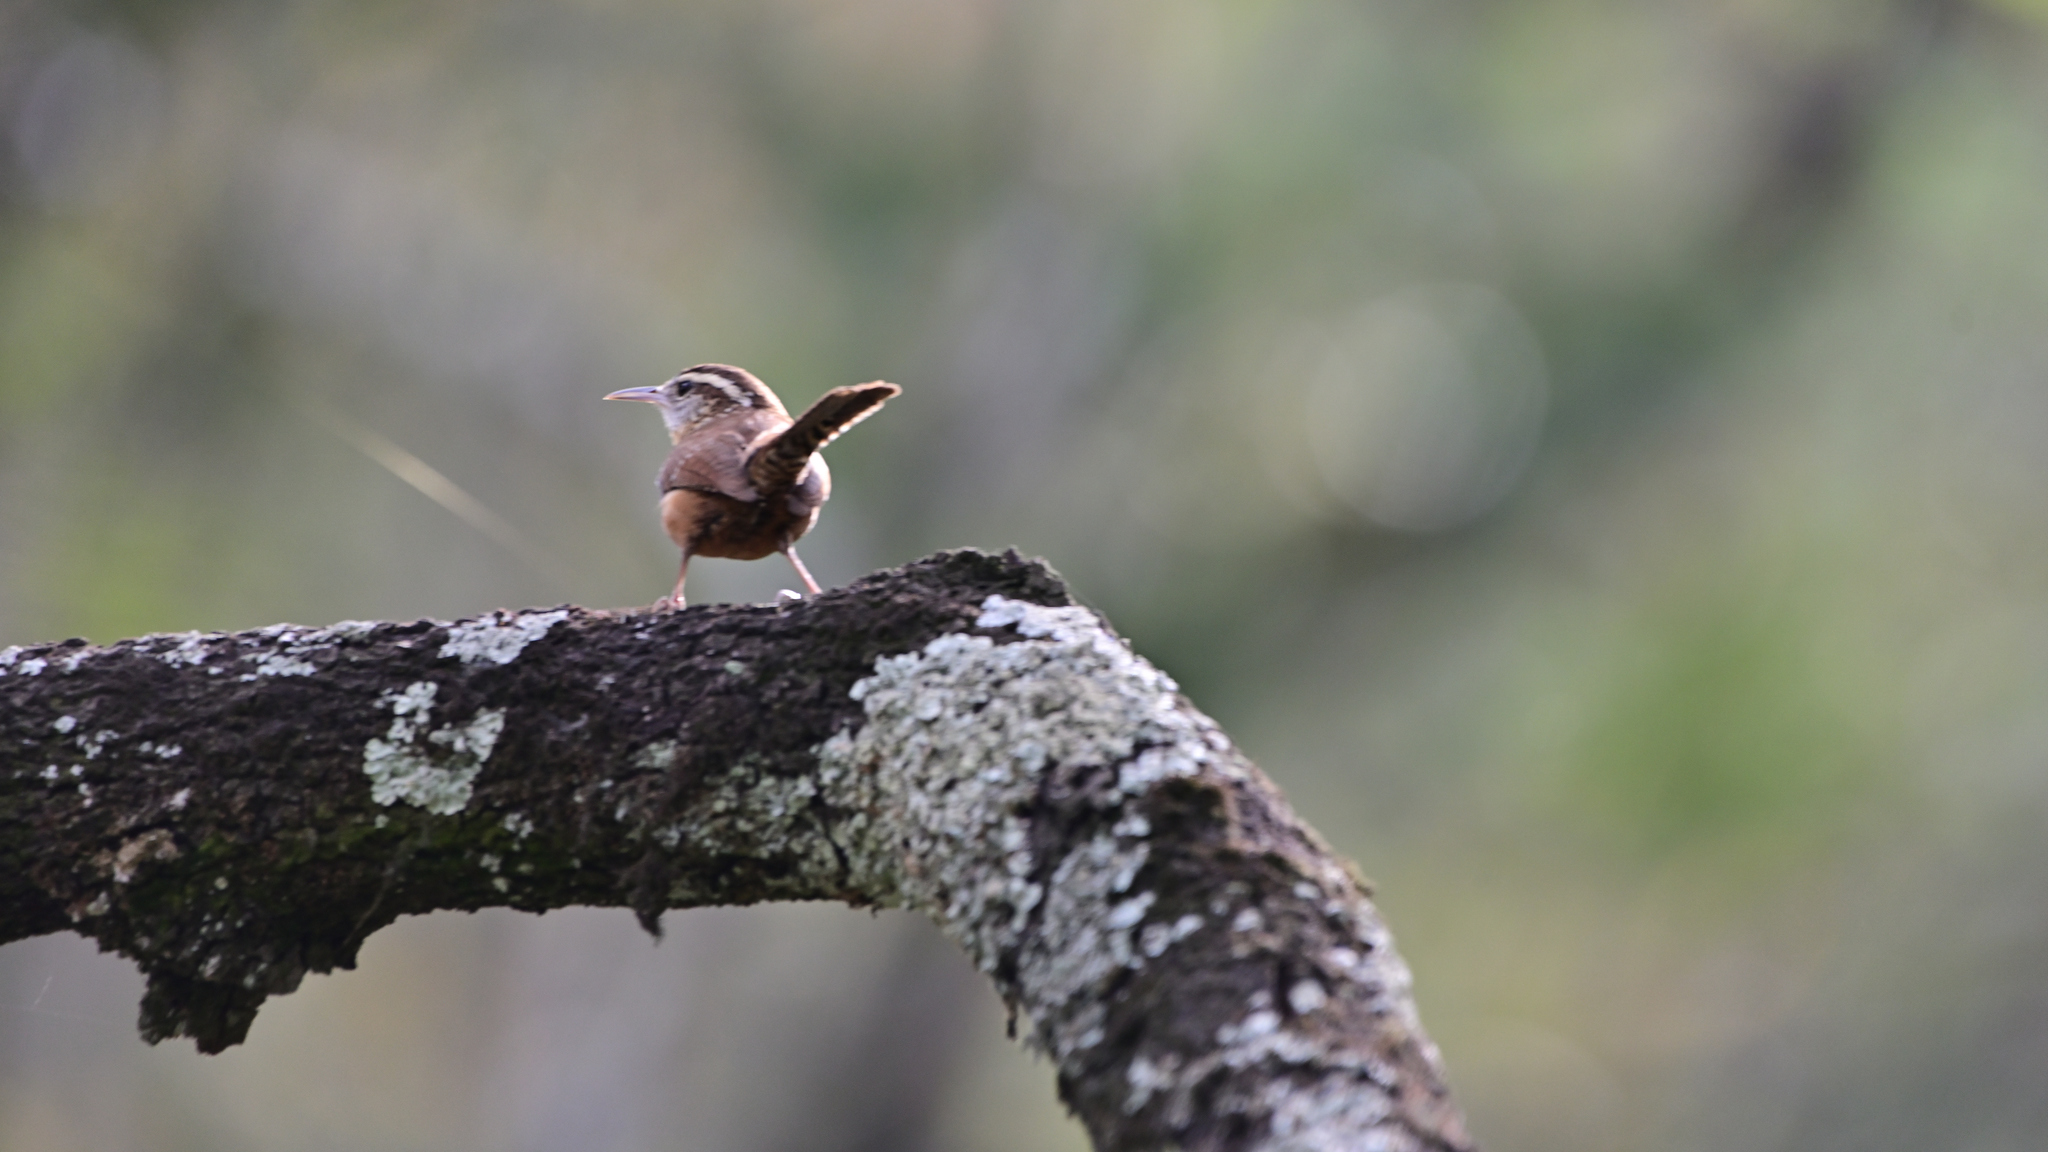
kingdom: Animalia
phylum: Chordata
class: Aves
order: Passeriformes
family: Troglodytidae
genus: Thryothorus
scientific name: Thryothorus ludovicianus
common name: Carolina wren
